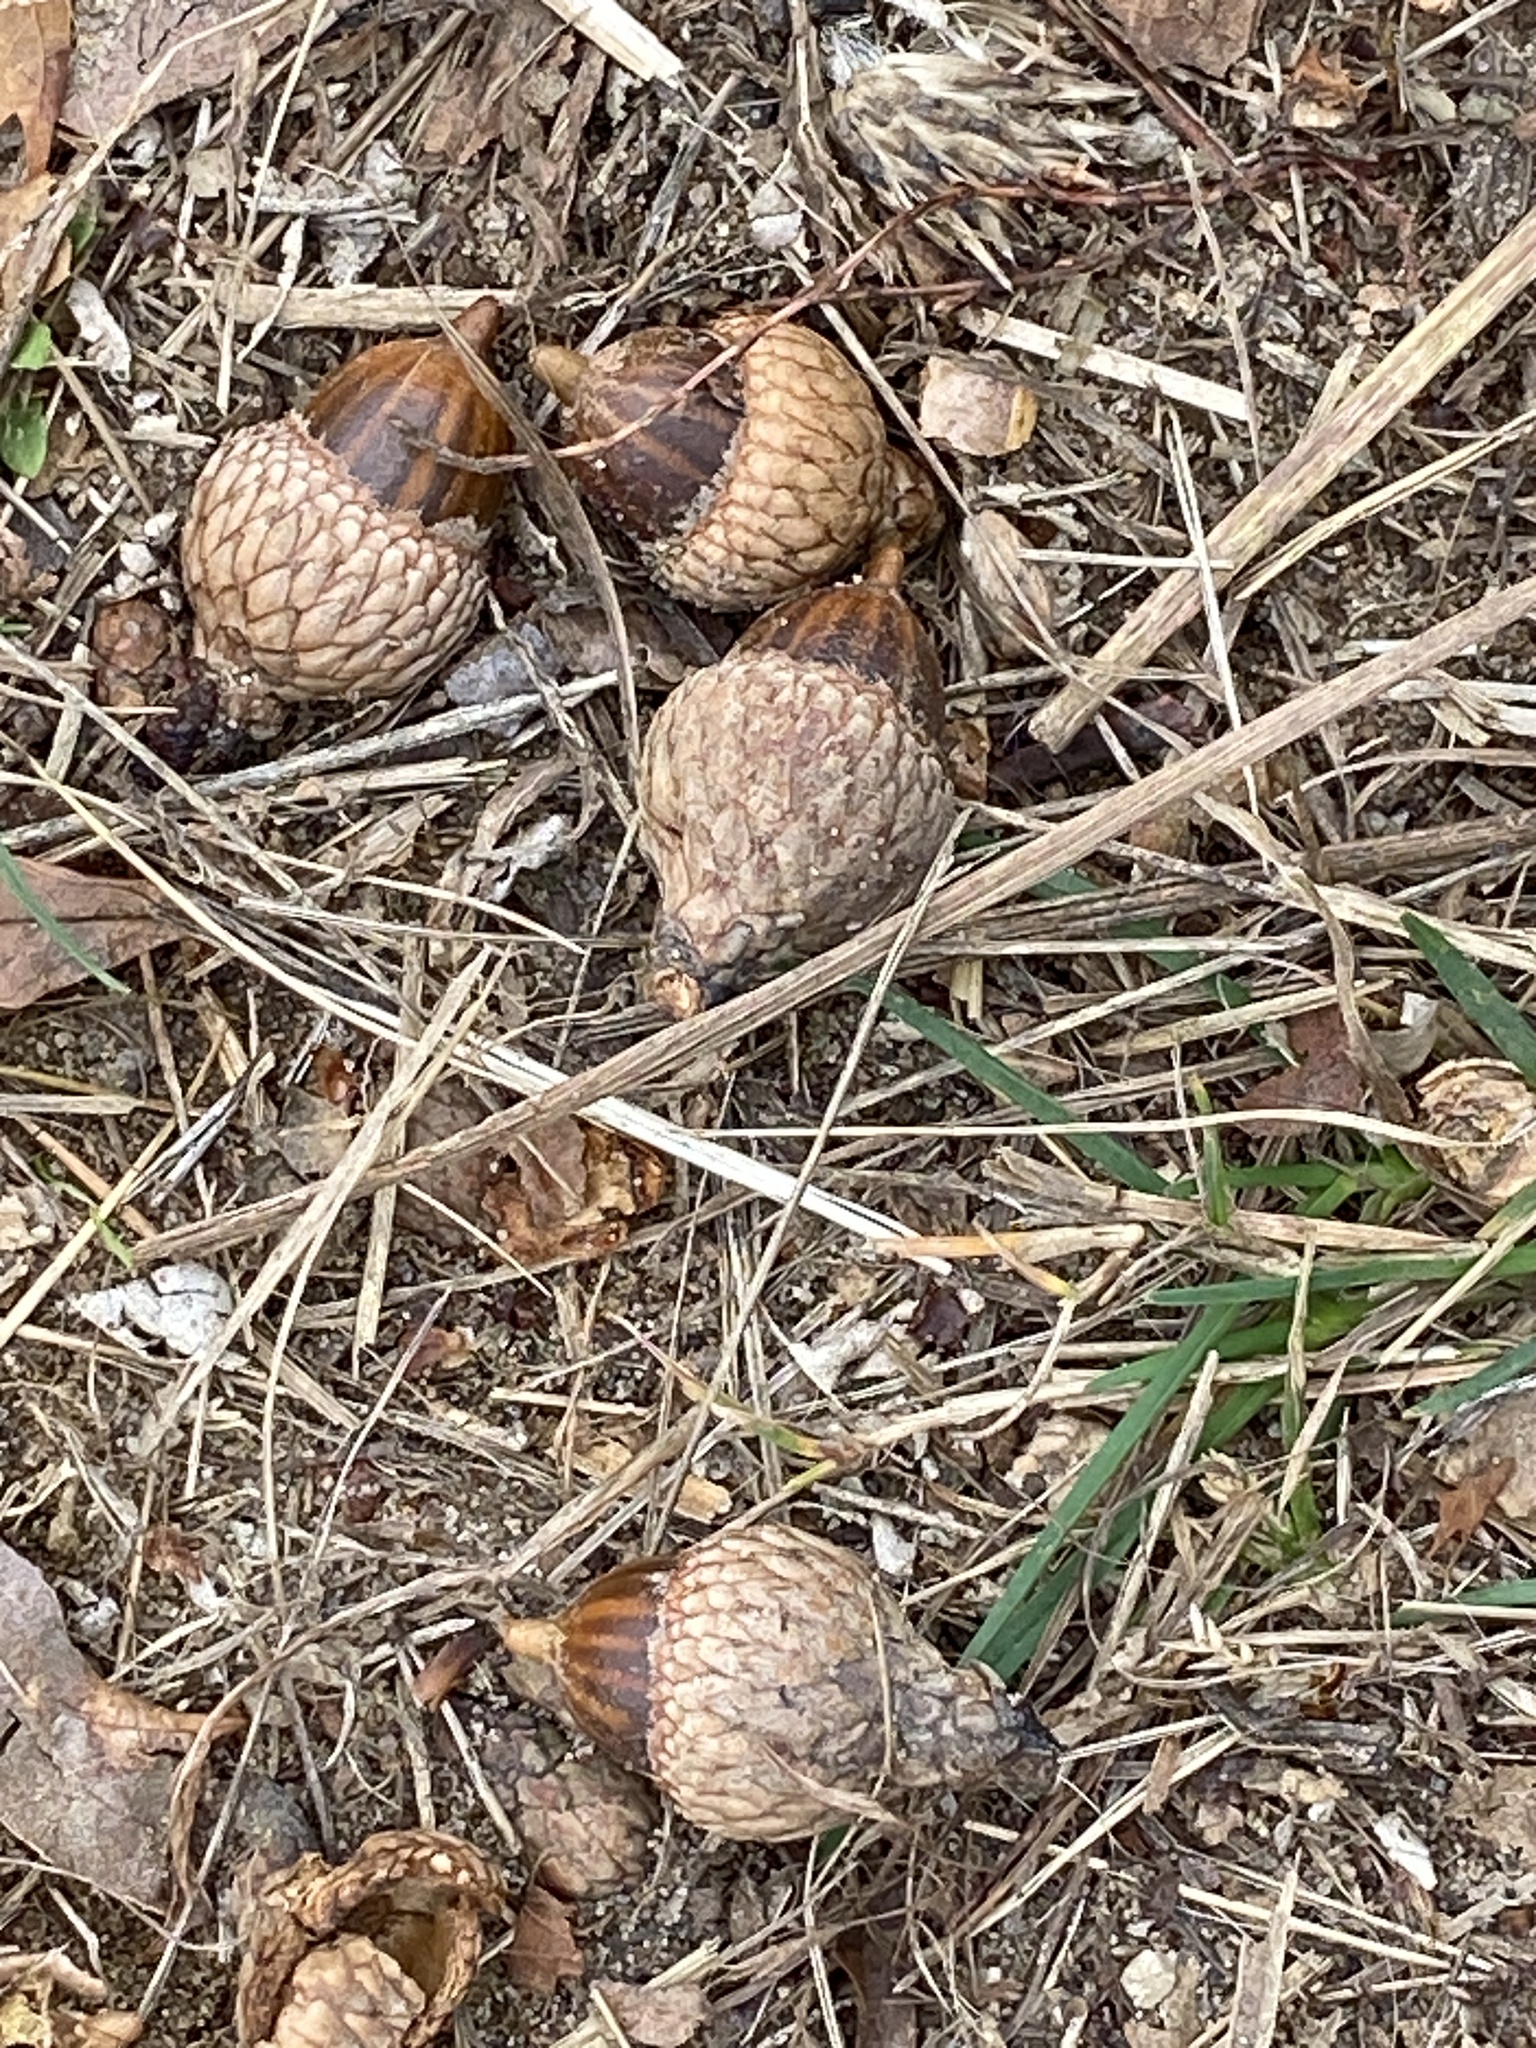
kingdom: Plantae
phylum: Tracheophyta
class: Magnoliopsida
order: Fagales
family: Fagaceae
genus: Quercus
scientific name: Quercus velutina
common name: Black oak
